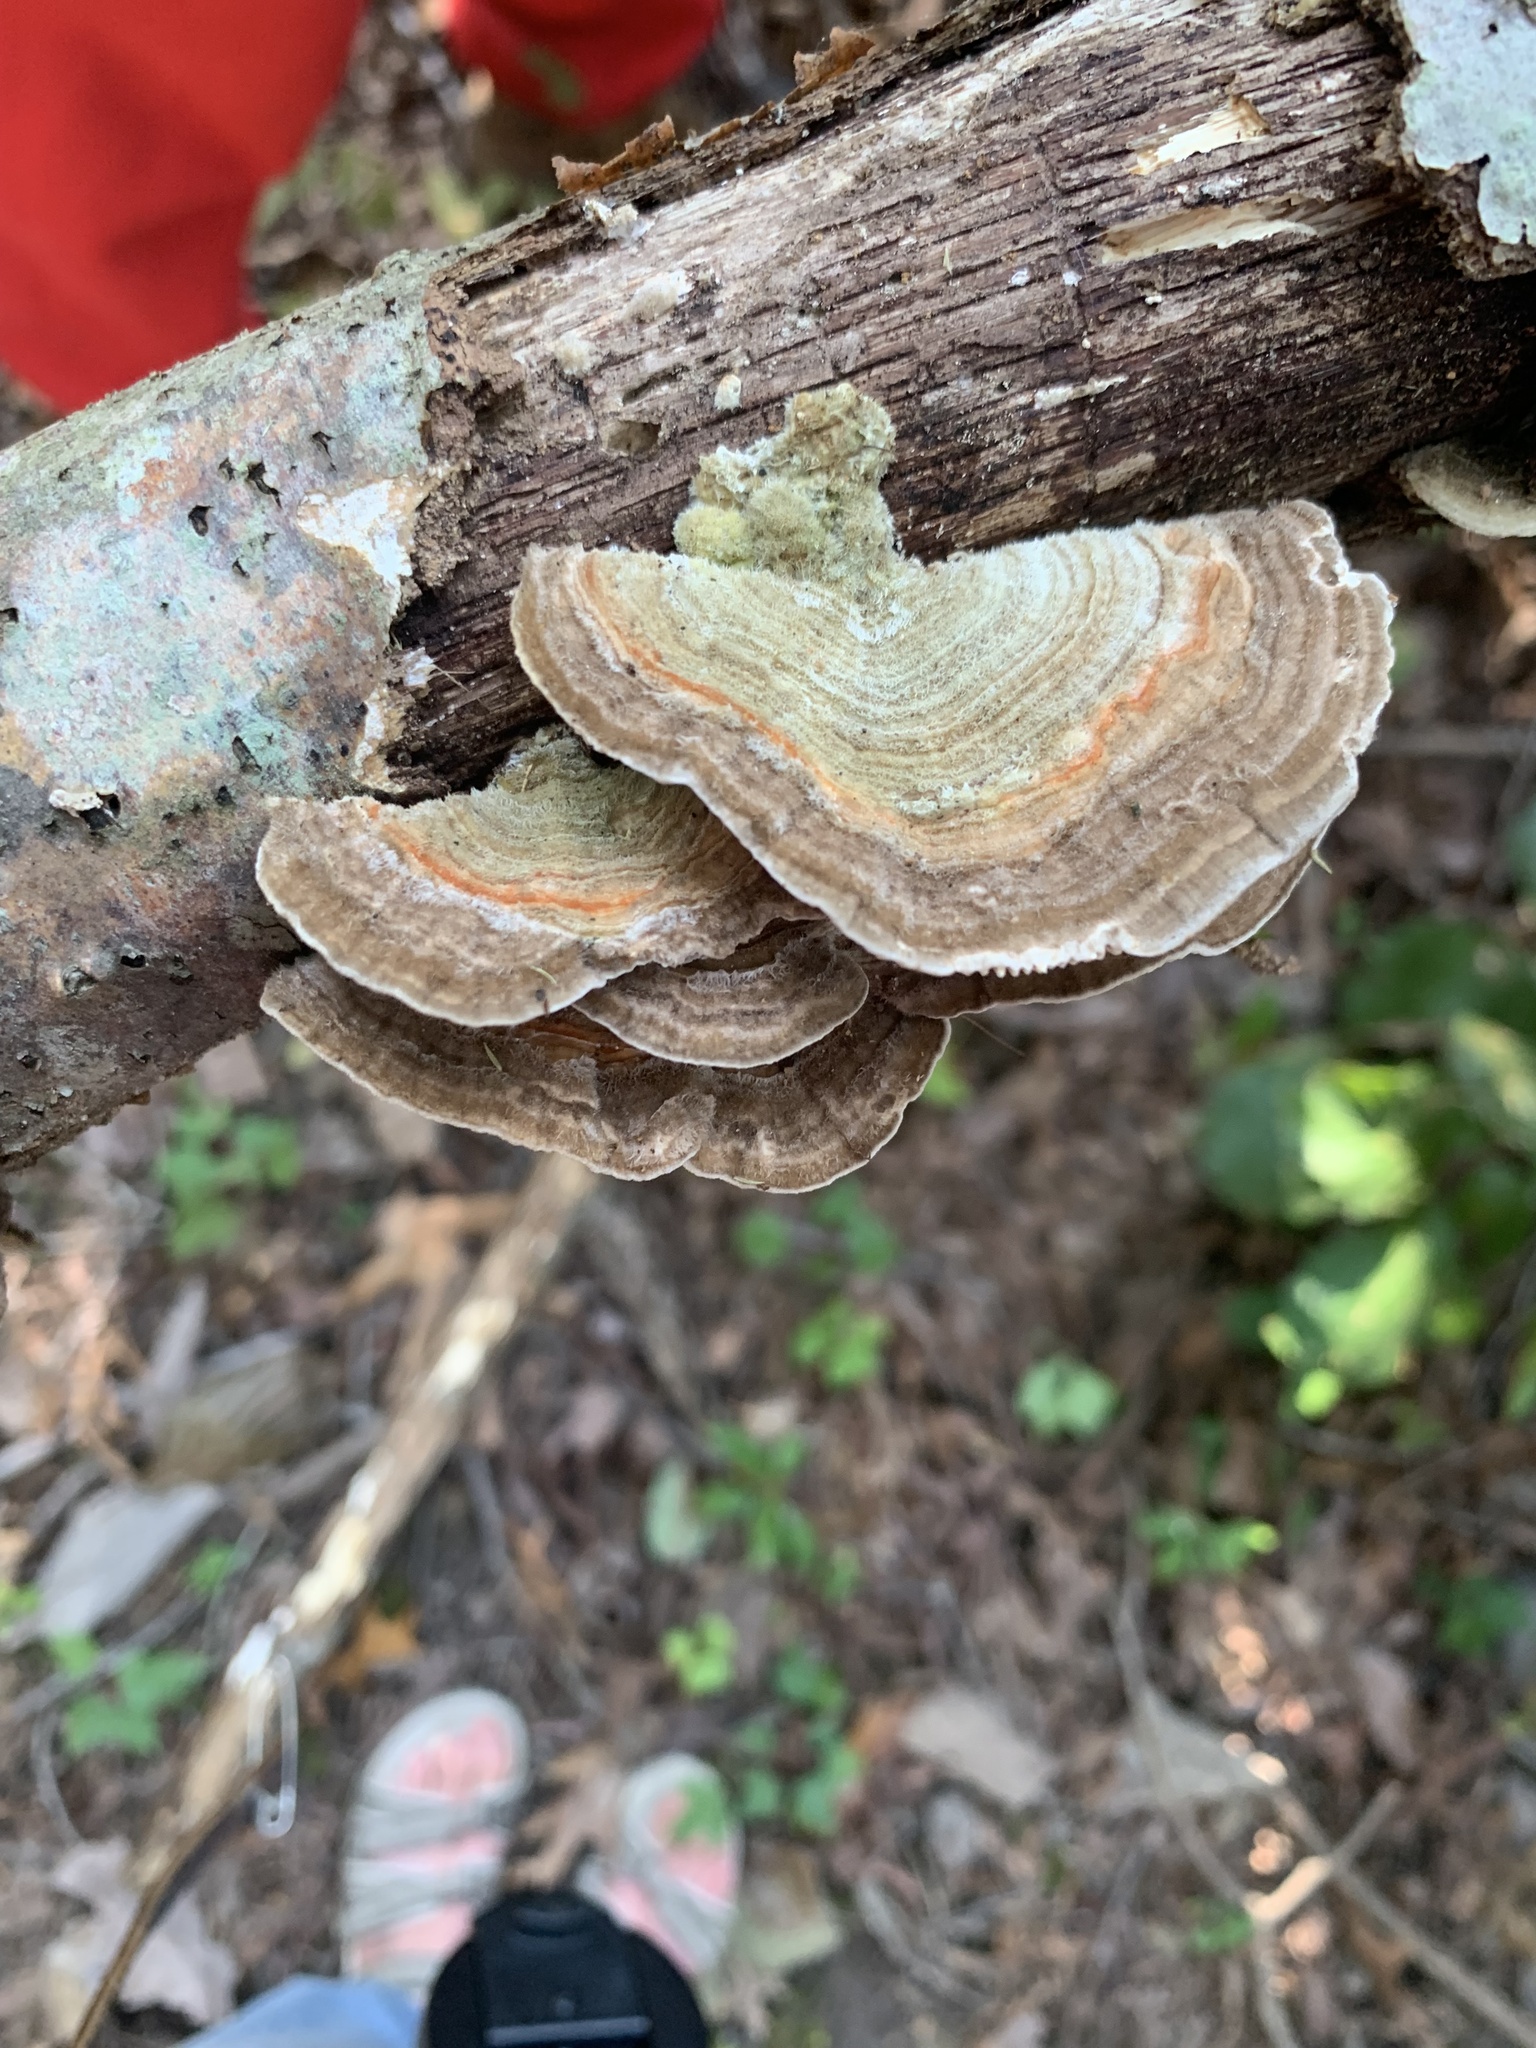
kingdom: Fungi
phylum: Basidiomycota
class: Agaricomycetes
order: Polyporales
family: Polyporaceae
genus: Lenzites
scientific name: Lenzites betulinus
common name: Birch mazegill
